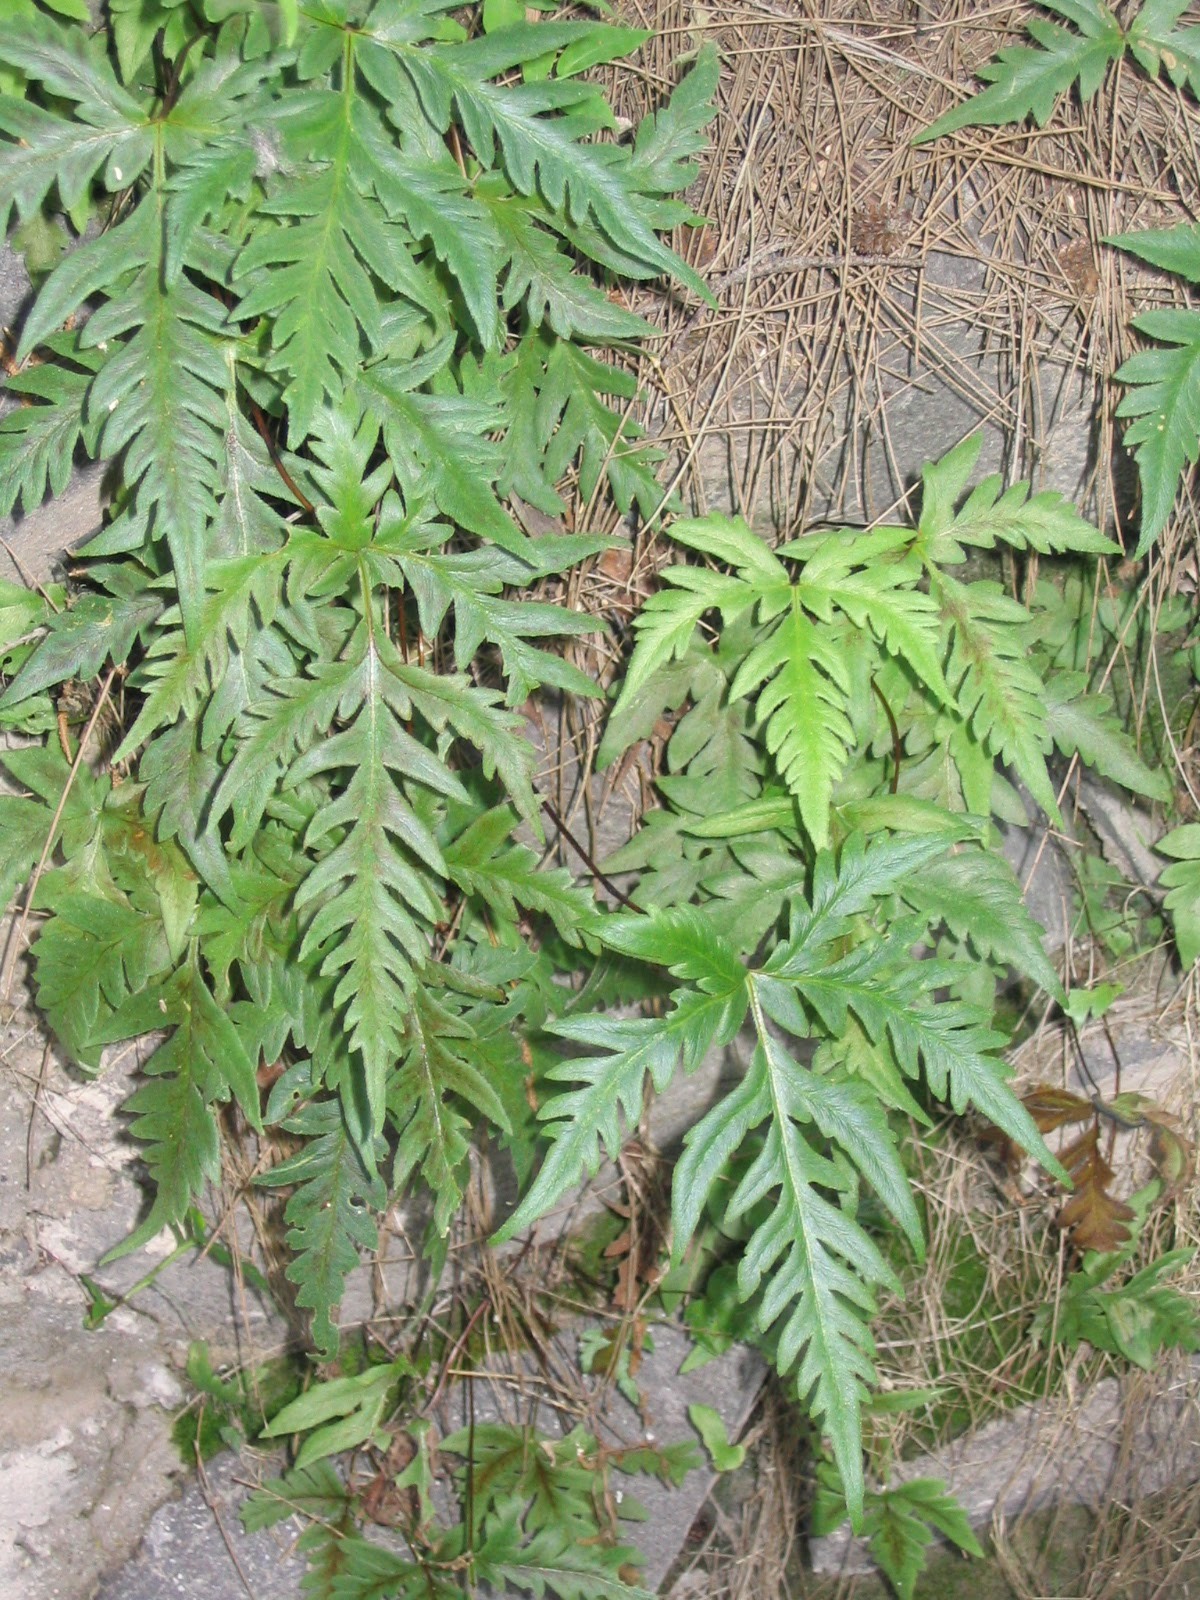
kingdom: Plantae
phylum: Tracheophyta
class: Polypodiopsida
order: Polypodiales
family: Pteridaceae
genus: Bommeria
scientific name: Bommeria pedata
